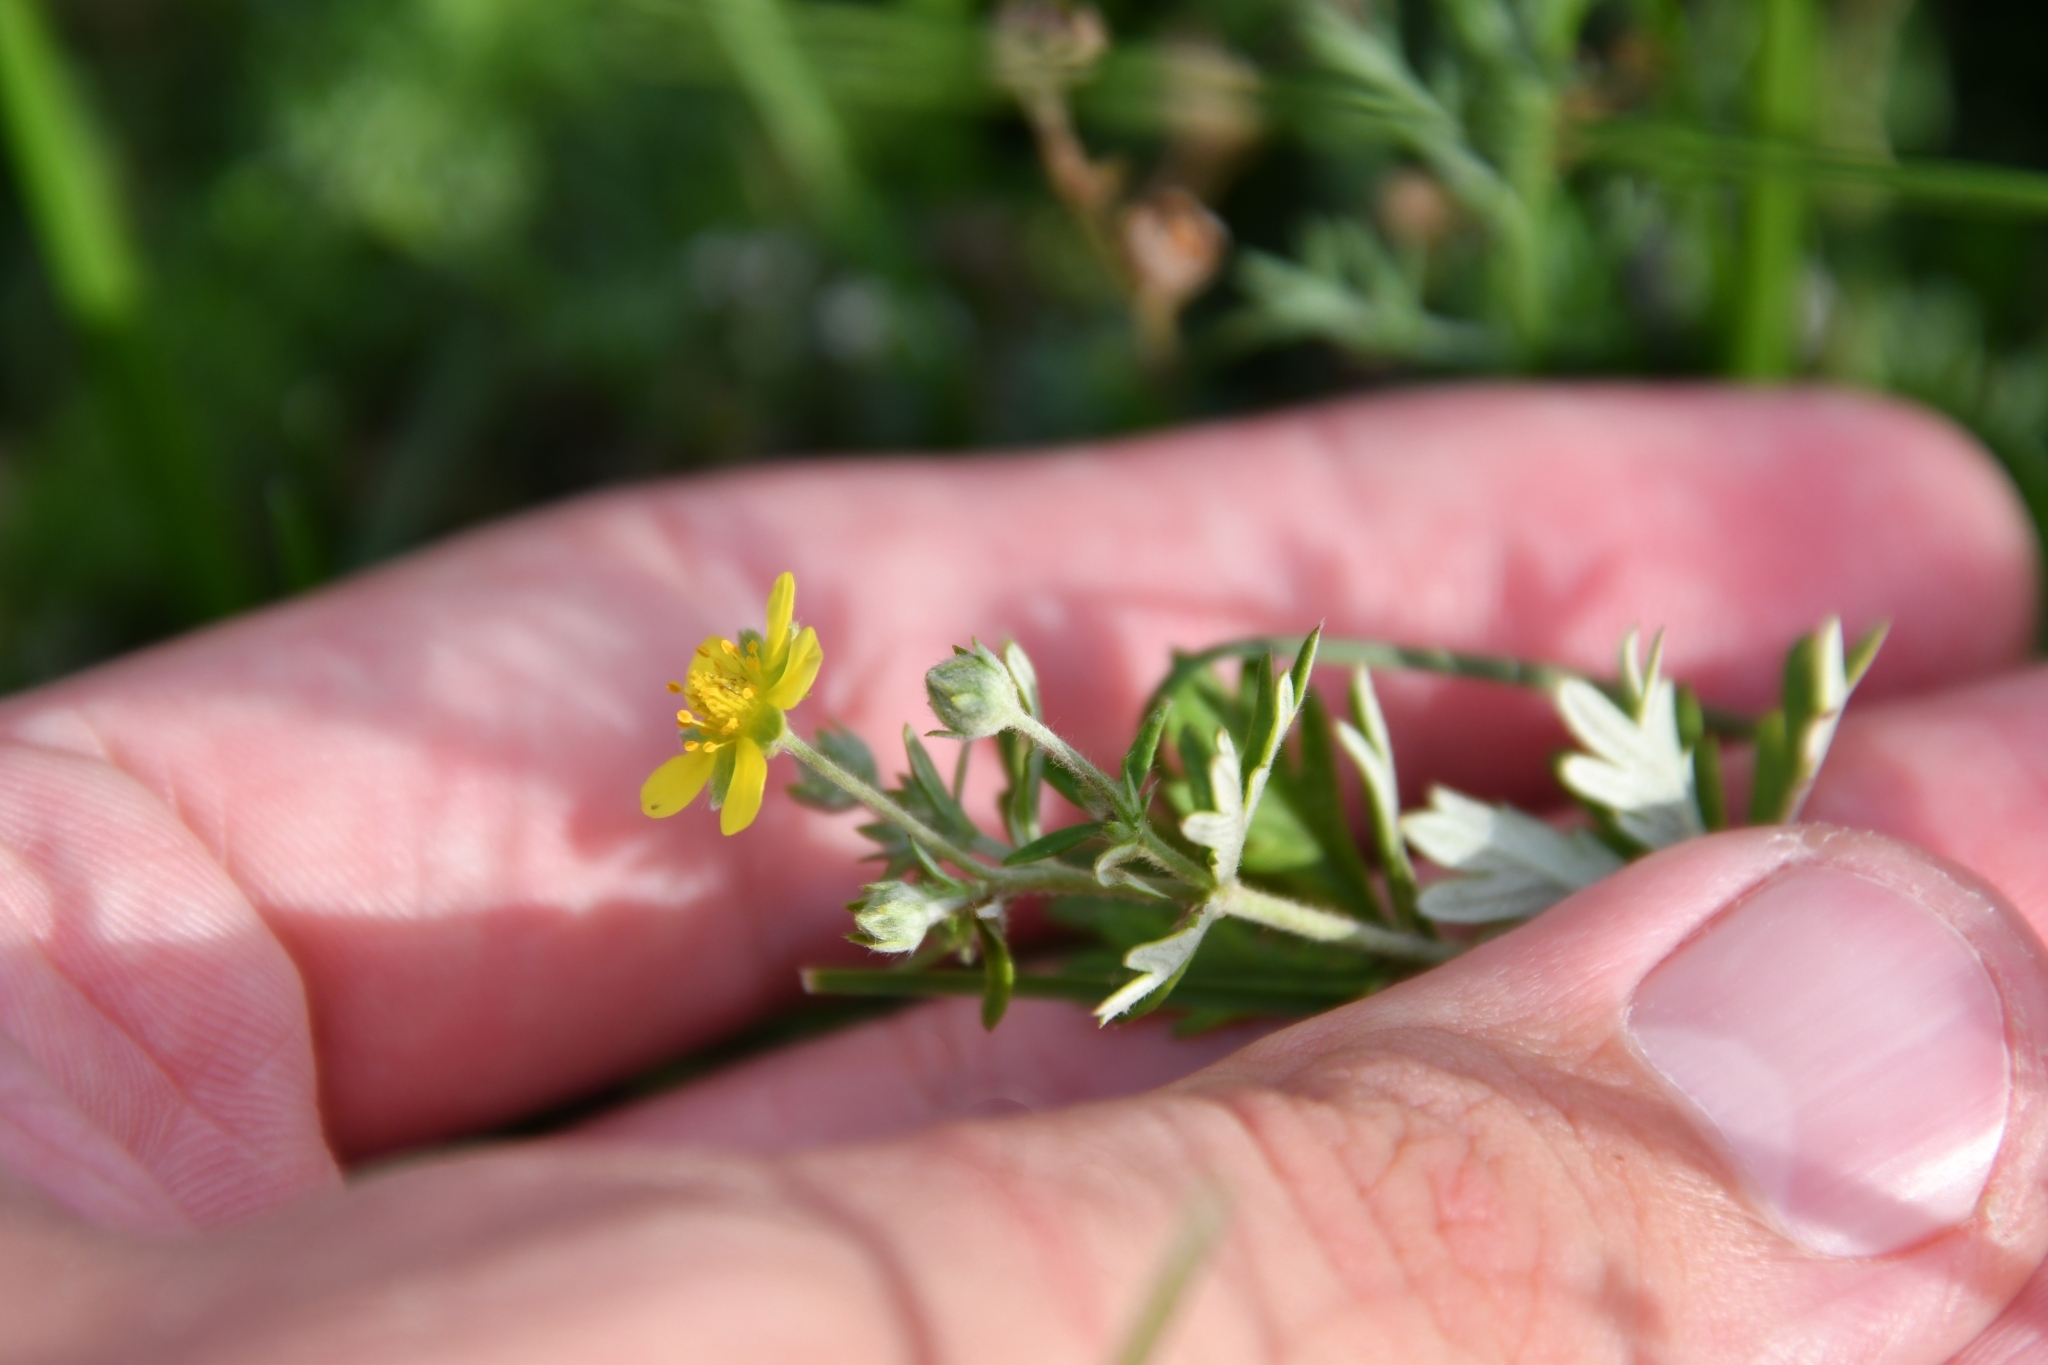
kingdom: Plantae
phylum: Tracheophyta
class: Magnoliopsida
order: Rosales
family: Rosaceae
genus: Potentilla
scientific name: Potentilla argentea
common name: Hoary cinquefoil
